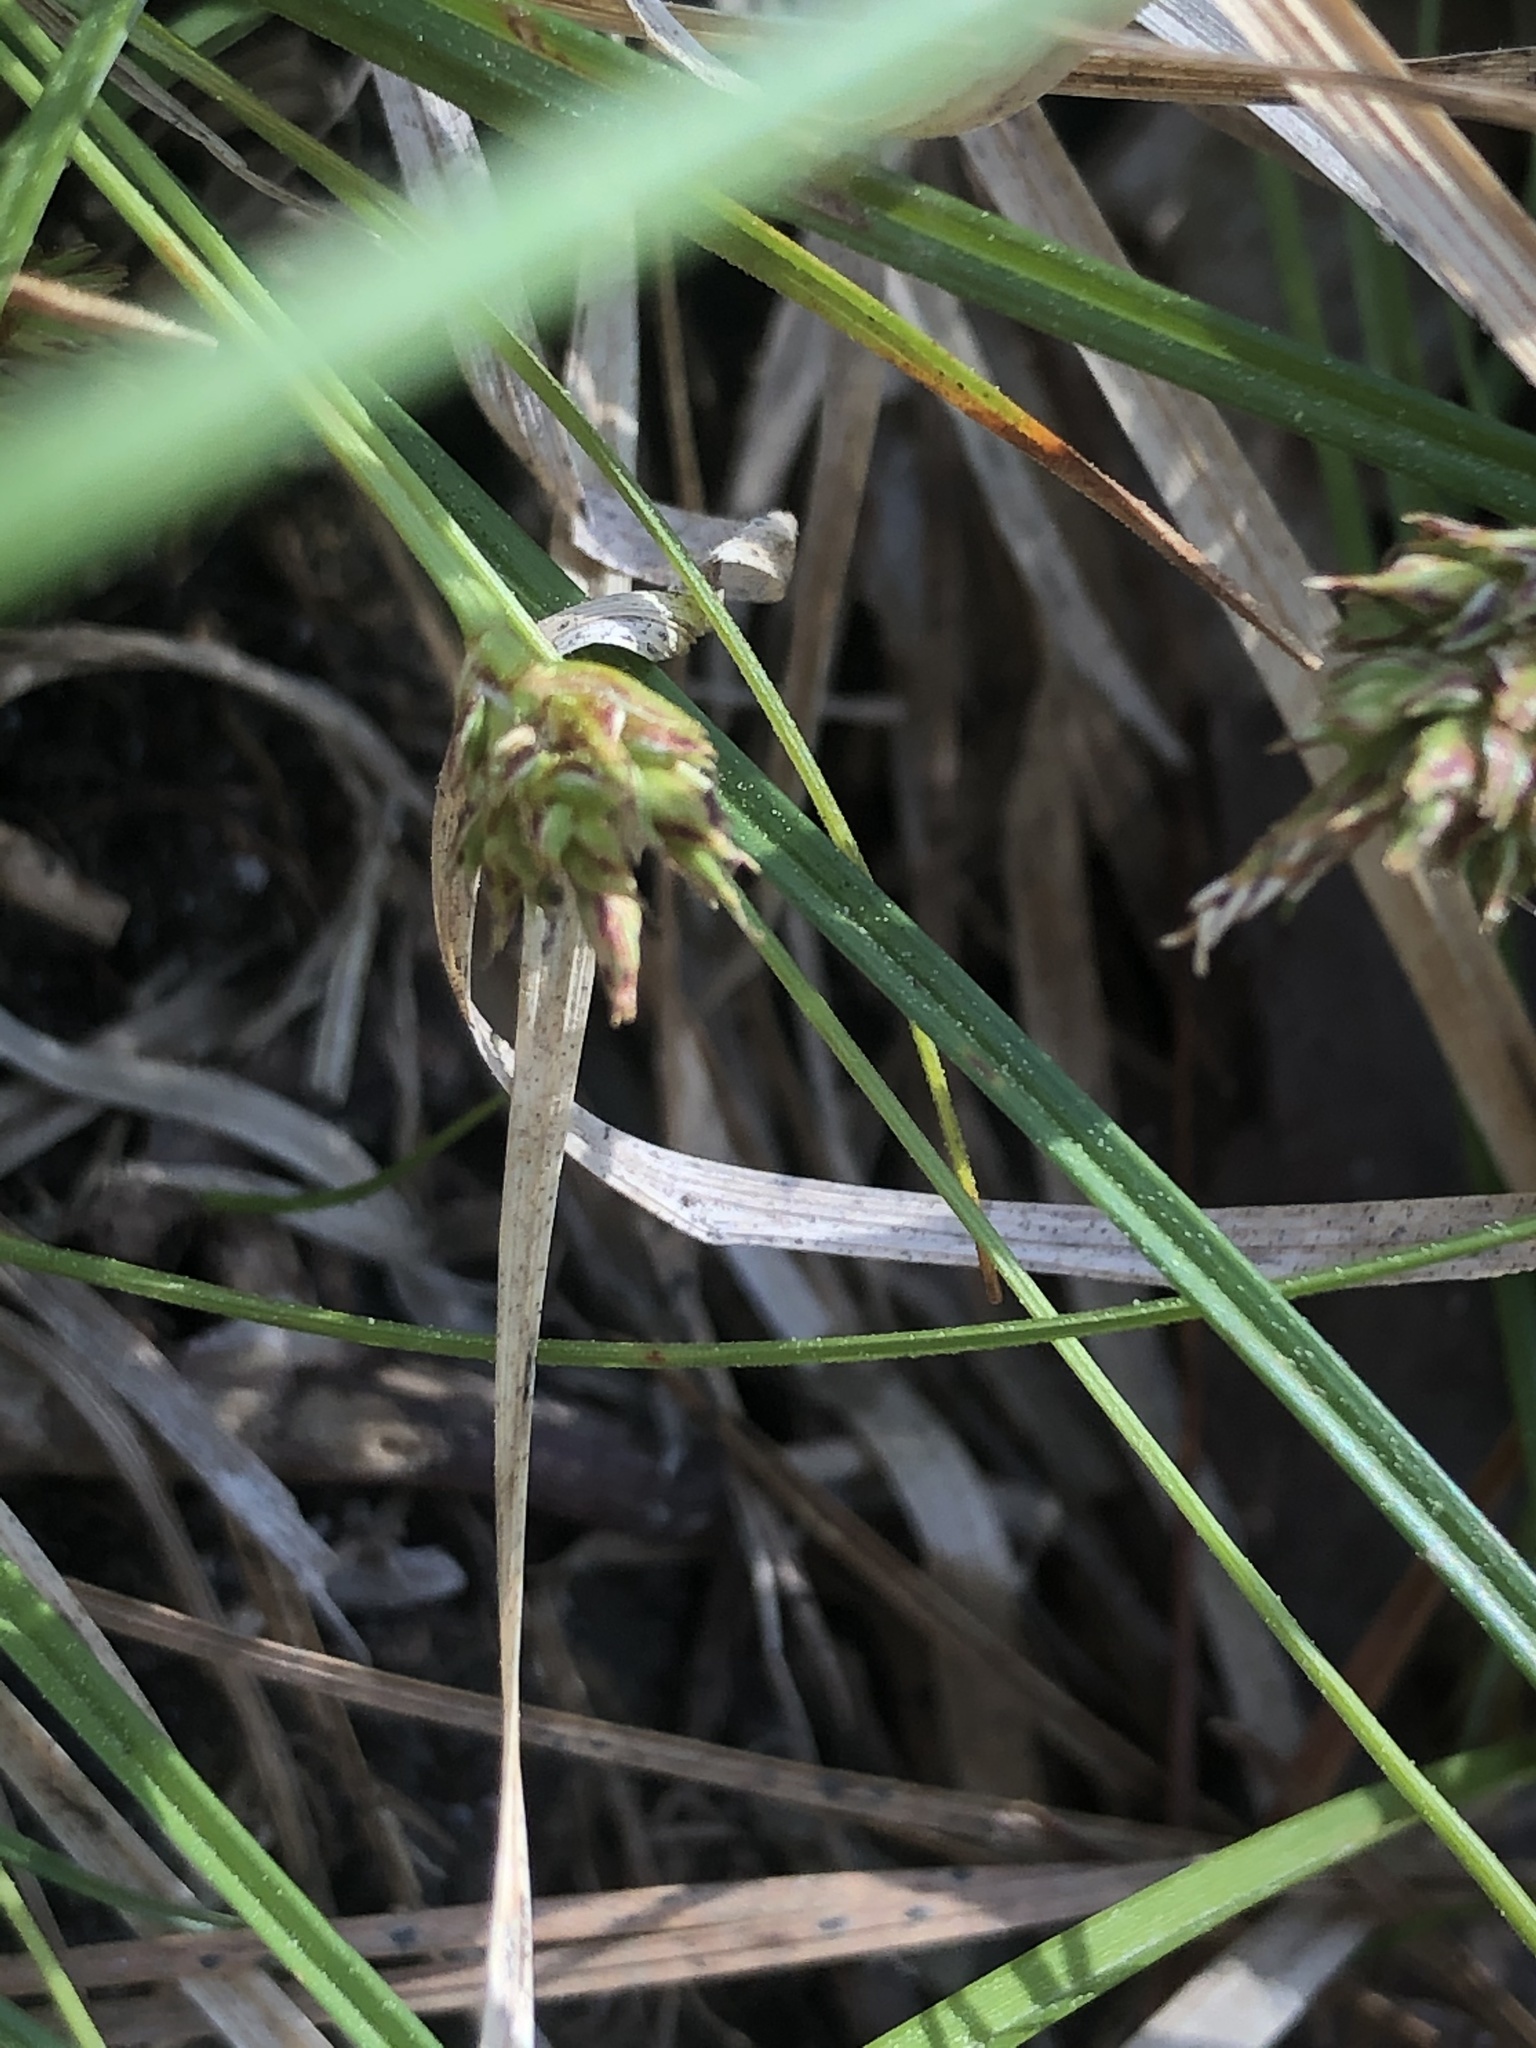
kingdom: Plantae
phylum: Tracheophyta
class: Liliopsida
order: Poales
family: Cyperaceae
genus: Carex
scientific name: Carex nigromarginata
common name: Black-edged sedge
